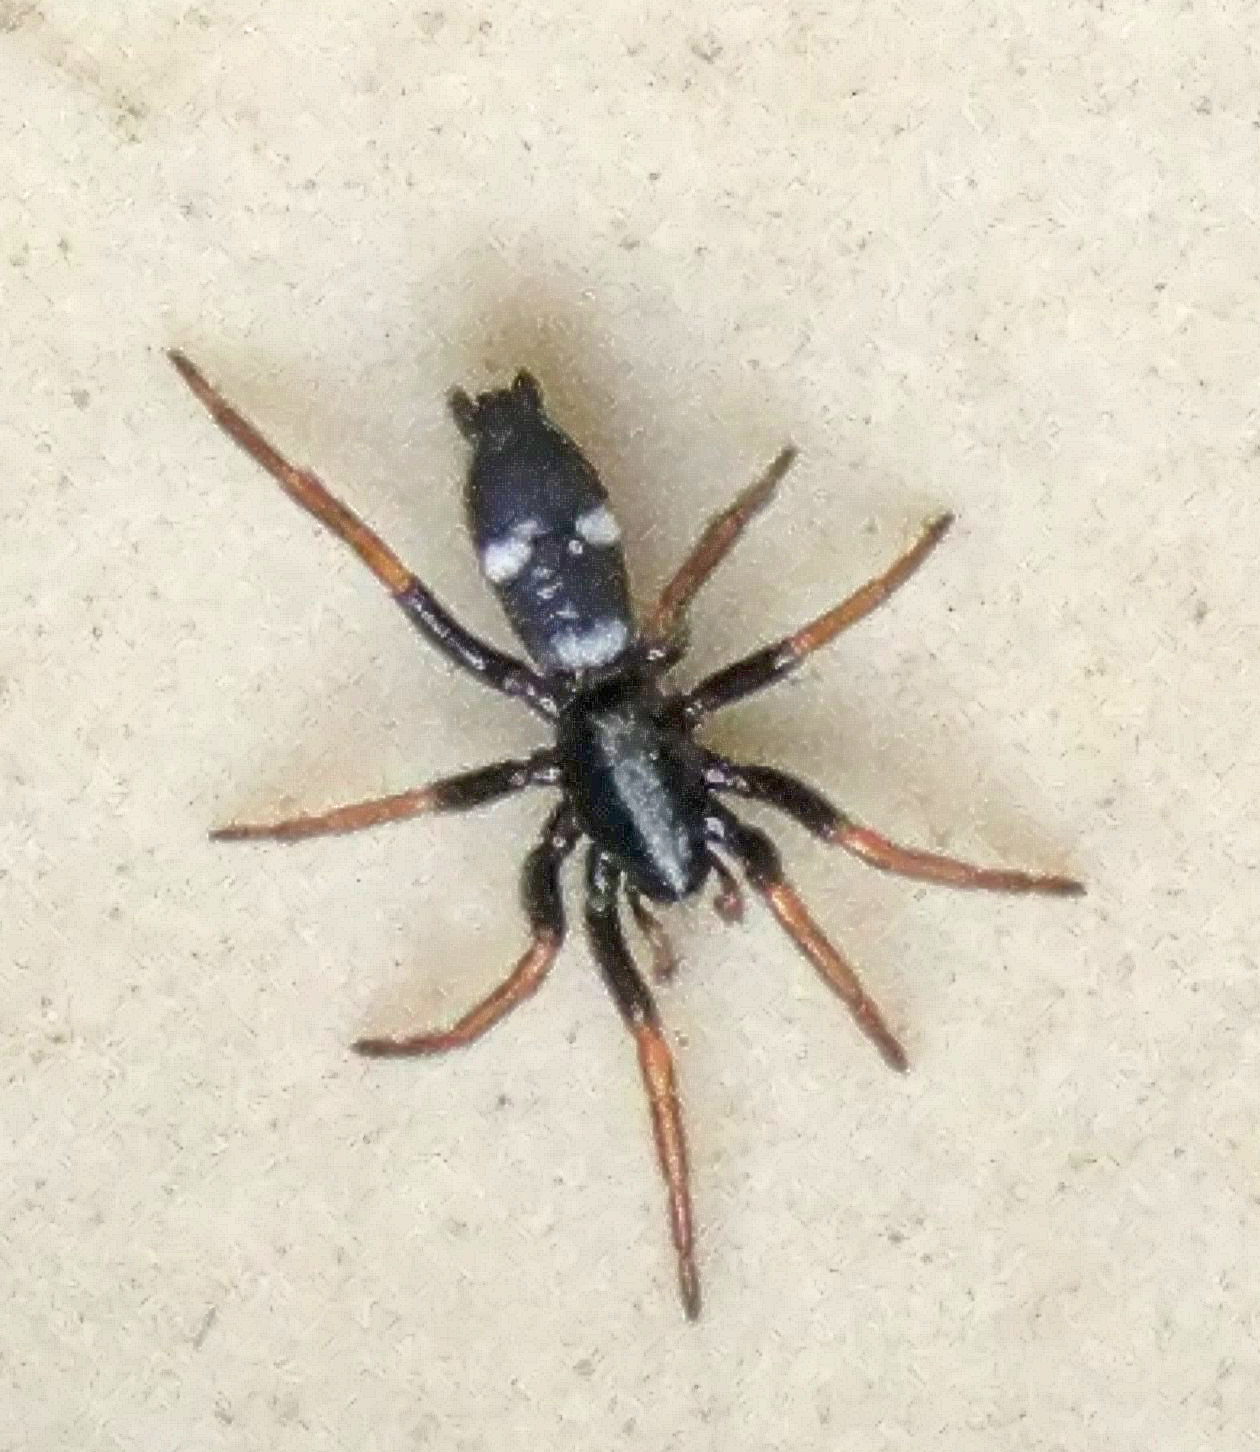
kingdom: Animalia
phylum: Arthropoda
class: Arachnida
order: Araneae
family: Gnaphosidae
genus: Aphantaulax
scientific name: Aphantaulax trifasciata
